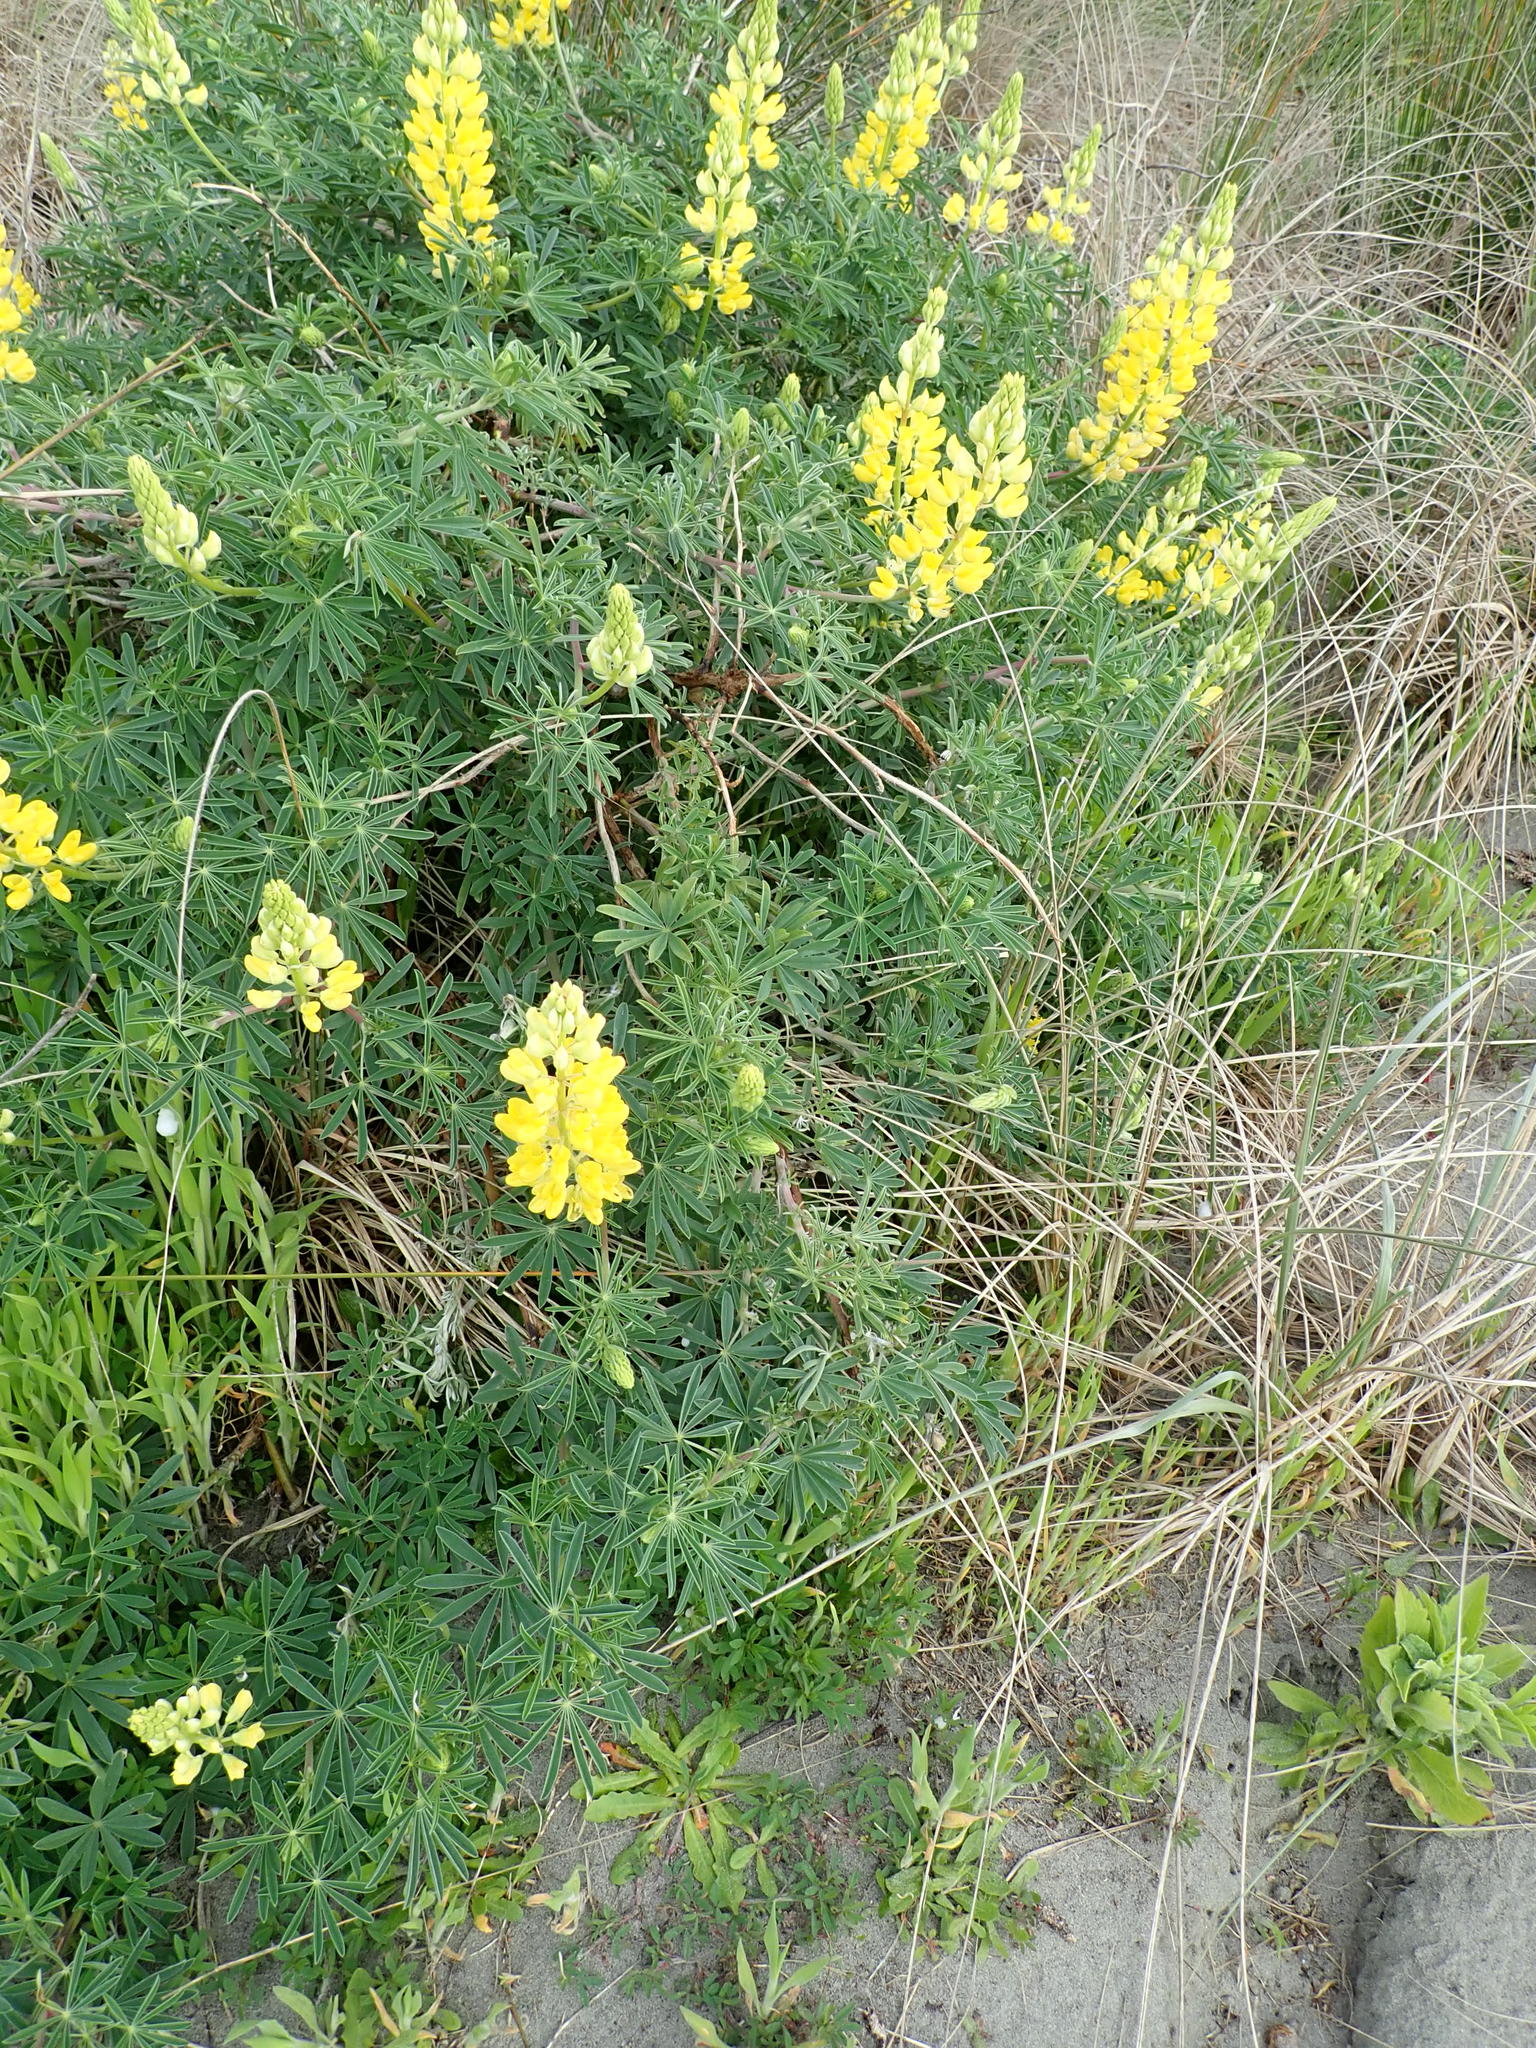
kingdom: Plantae
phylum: Tracheophyta
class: Magnoliopsida
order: Fabales
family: Fabaceae
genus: Lupinus
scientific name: Lupinus arboreus
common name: Yellow bush lupine
